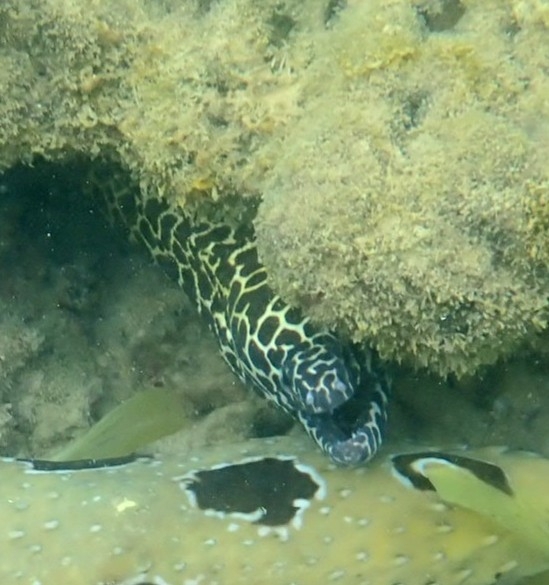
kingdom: Animalia
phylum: Chordata
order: Anguilliformes
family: Muraenidae
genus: Gymnothorax
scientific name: Gymnothorax favagineus
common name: Honeycomb moray
